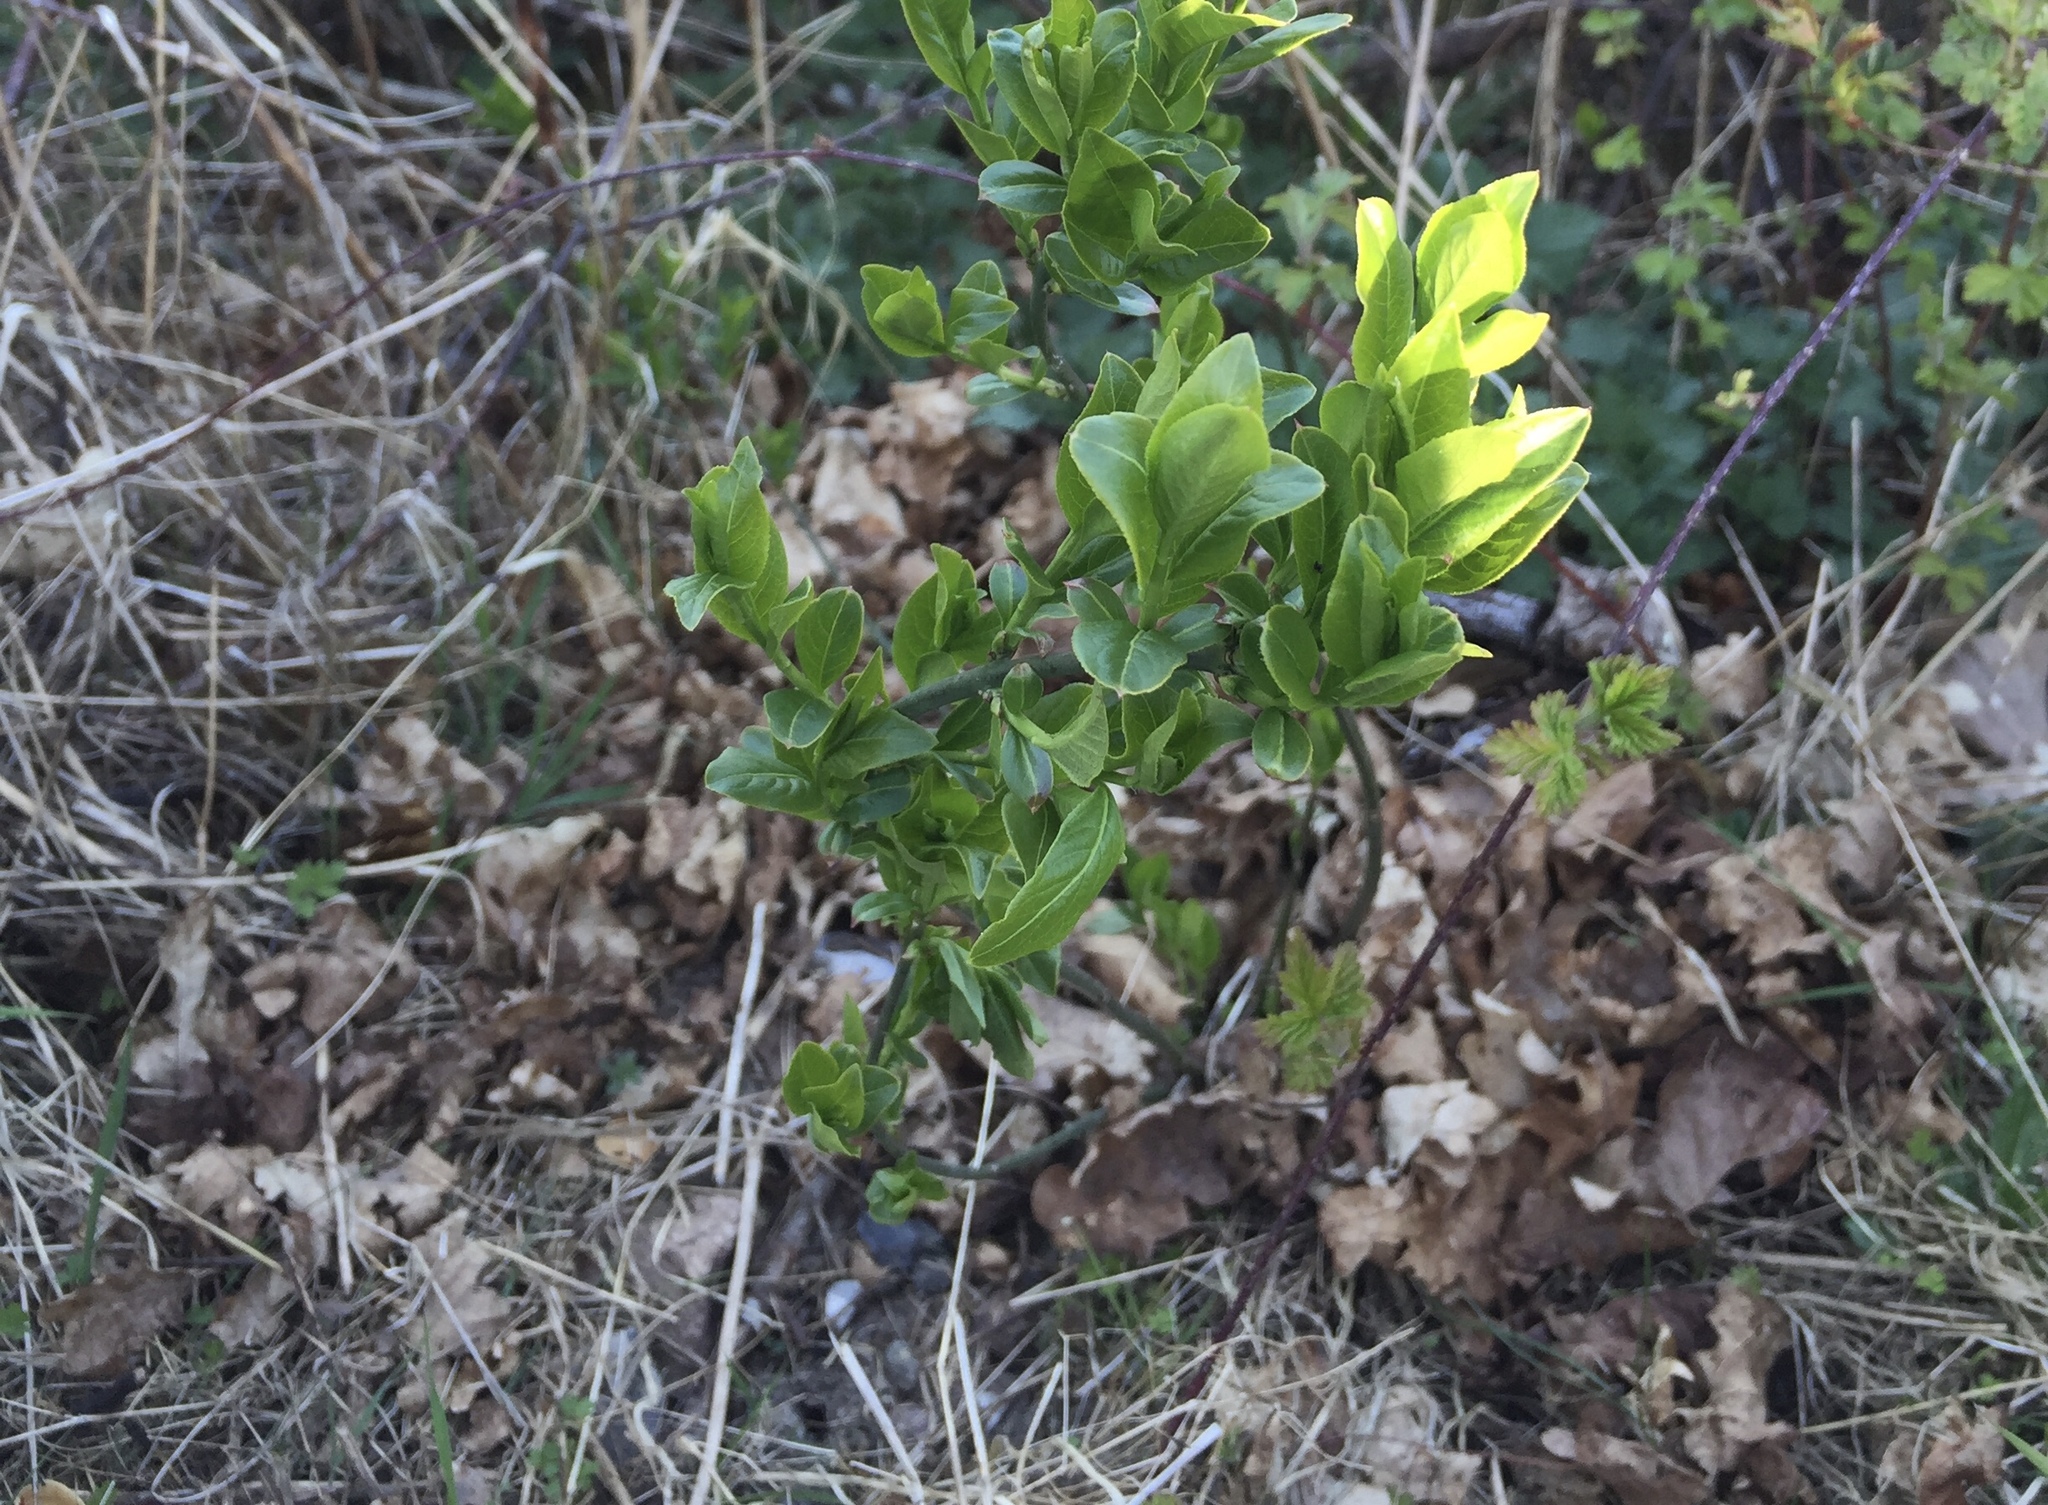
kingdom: Plantae
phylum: Tracheophyta
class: Magnoliopsida
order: Celastrales
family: Celastraceae
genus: Euonymus
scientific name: Euonymus europaeus
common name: Spindle
